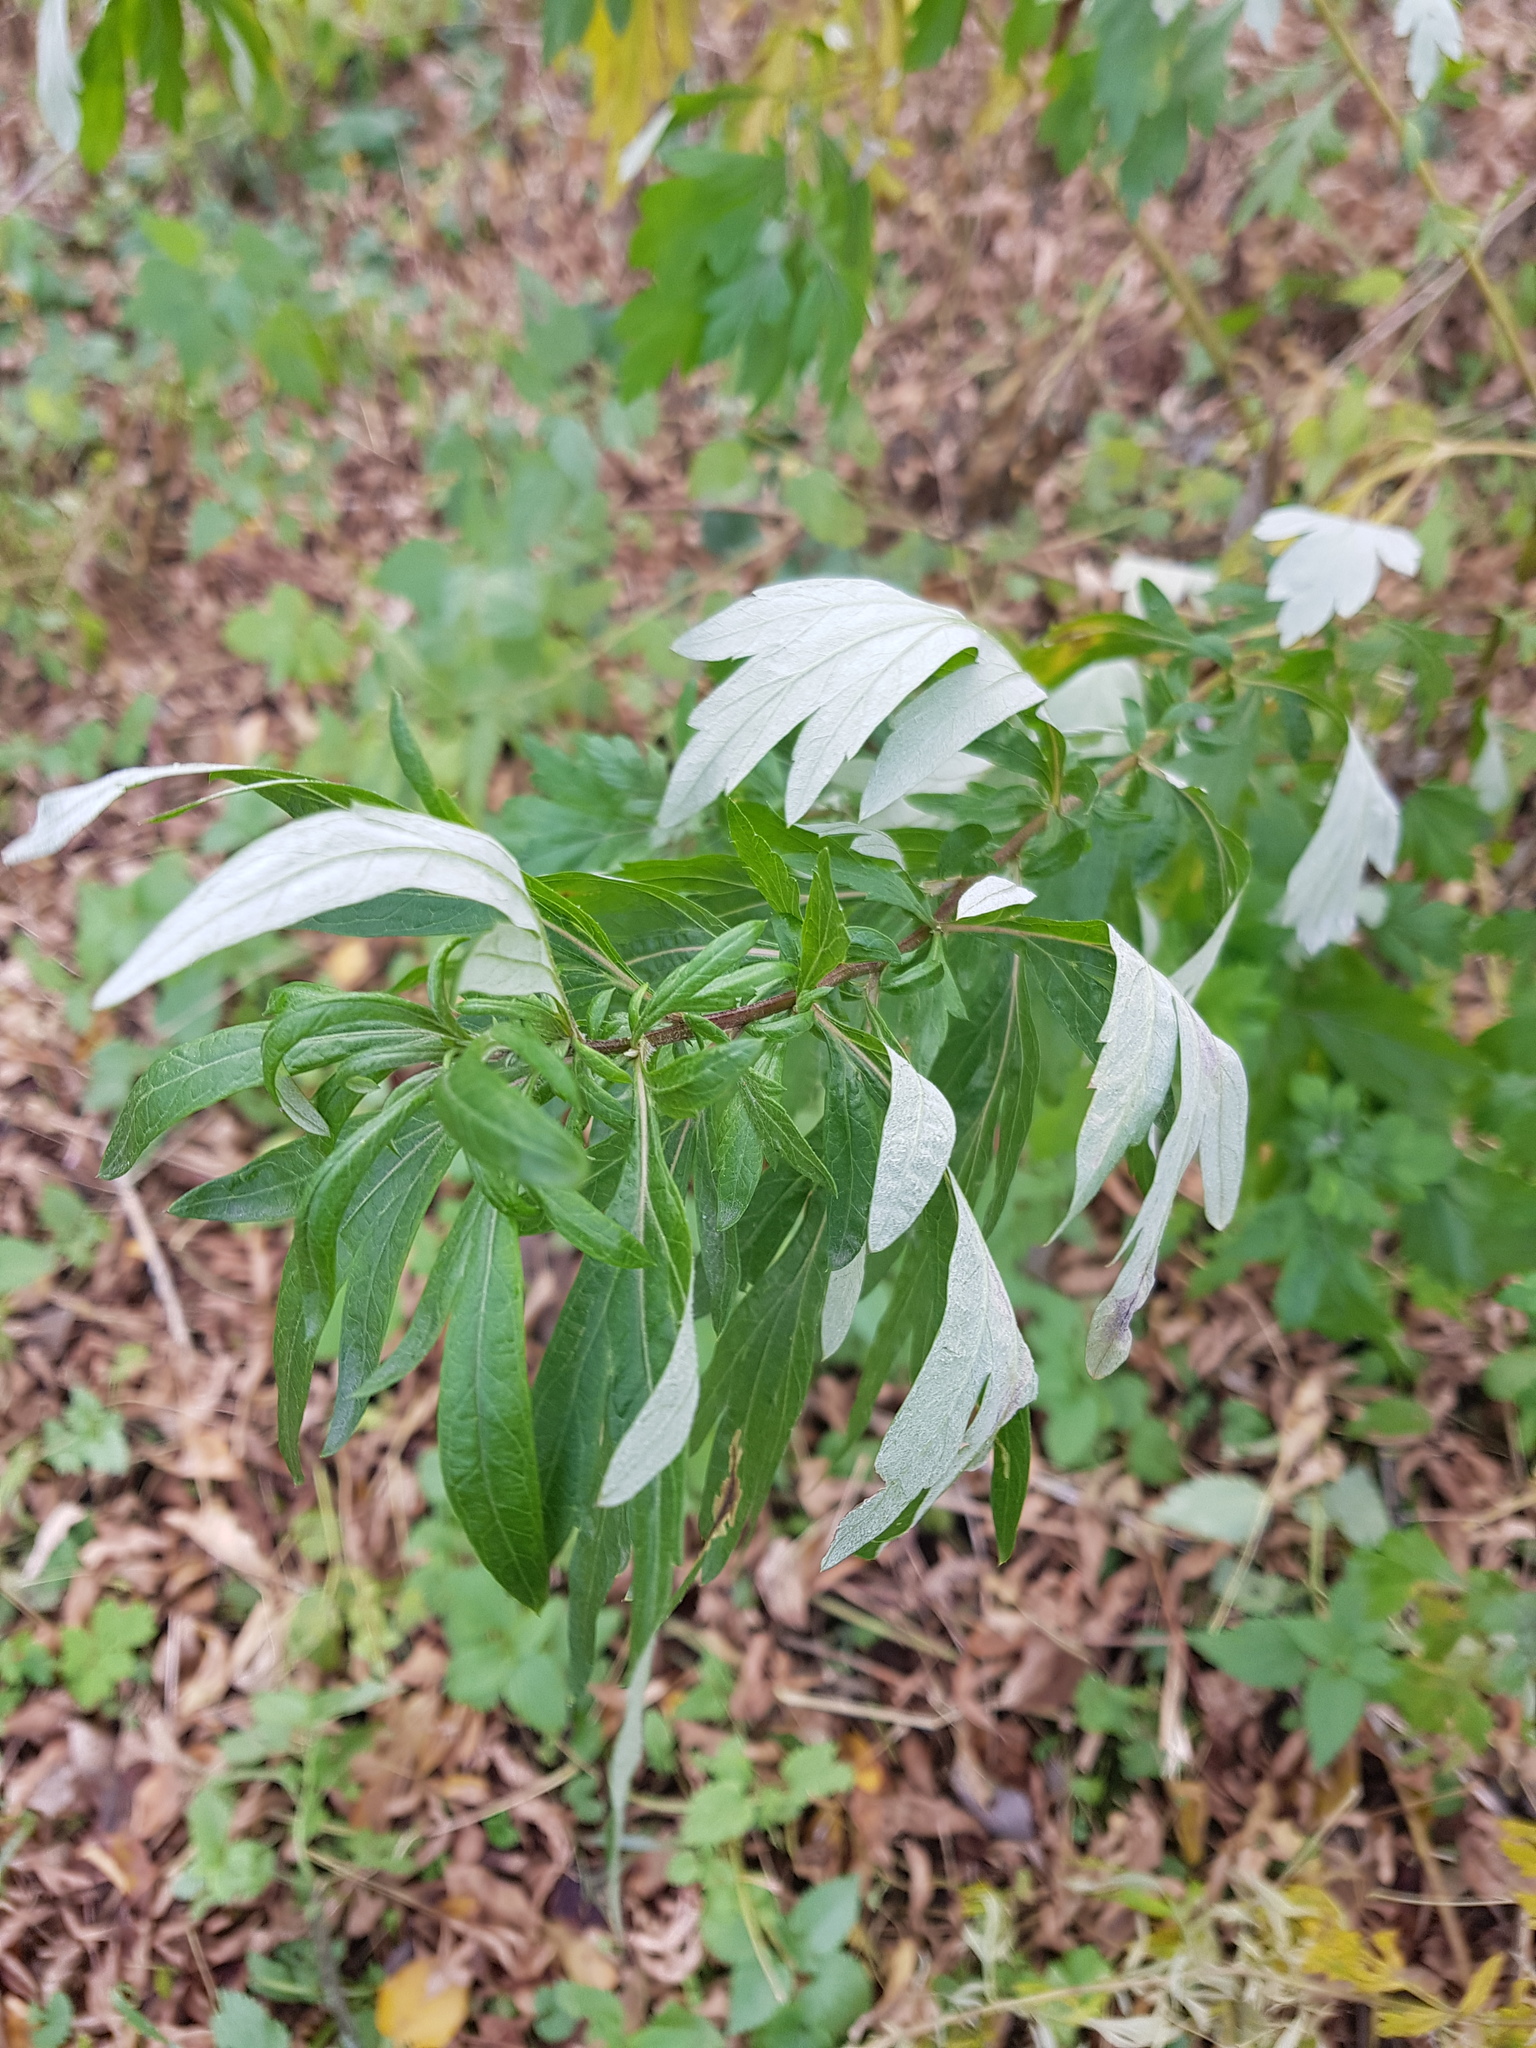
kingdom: Plantae
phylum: Tracheophyta
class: Magnoliopsida
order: Asterales
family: Asteraceae
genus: Artemisia
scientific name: Artemisia vulgaris
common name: Mugwort
